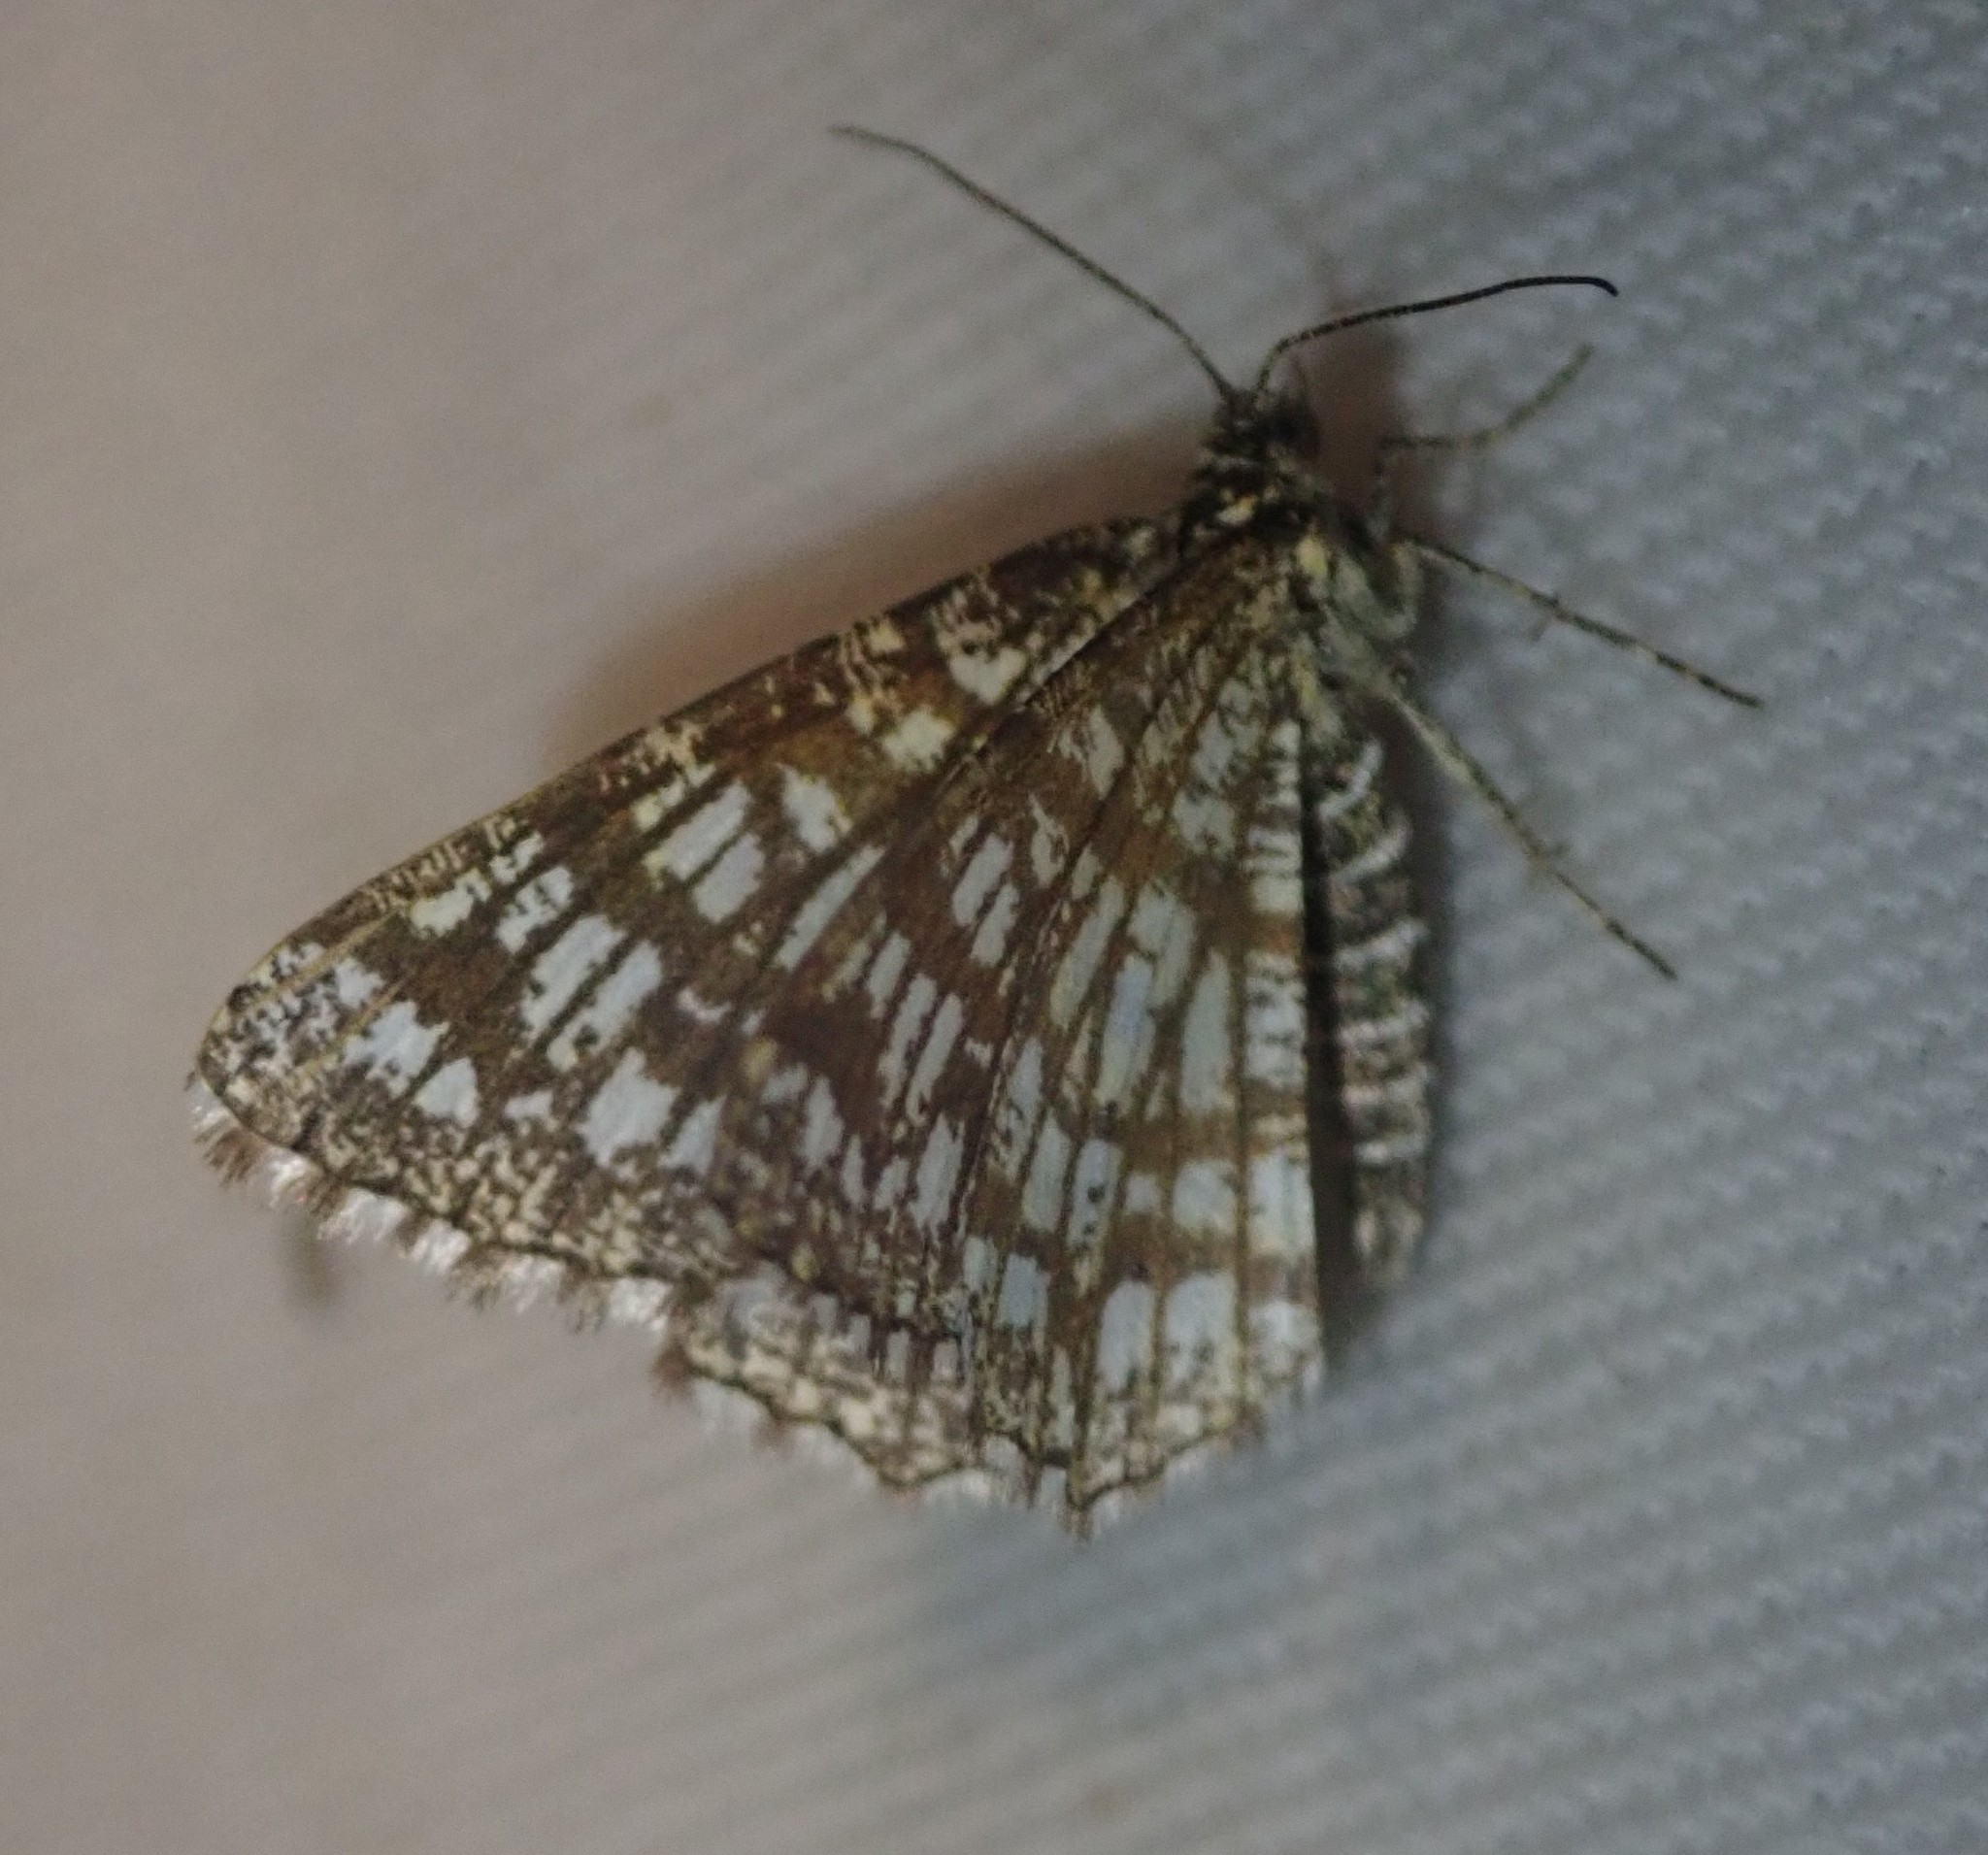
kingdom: Animalia
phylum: Arthropoda
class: Insecta
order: Lepidoptera
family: Geometridae
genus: Chiasmia
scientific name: Chiasmia clathrata
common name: Latticed heath
